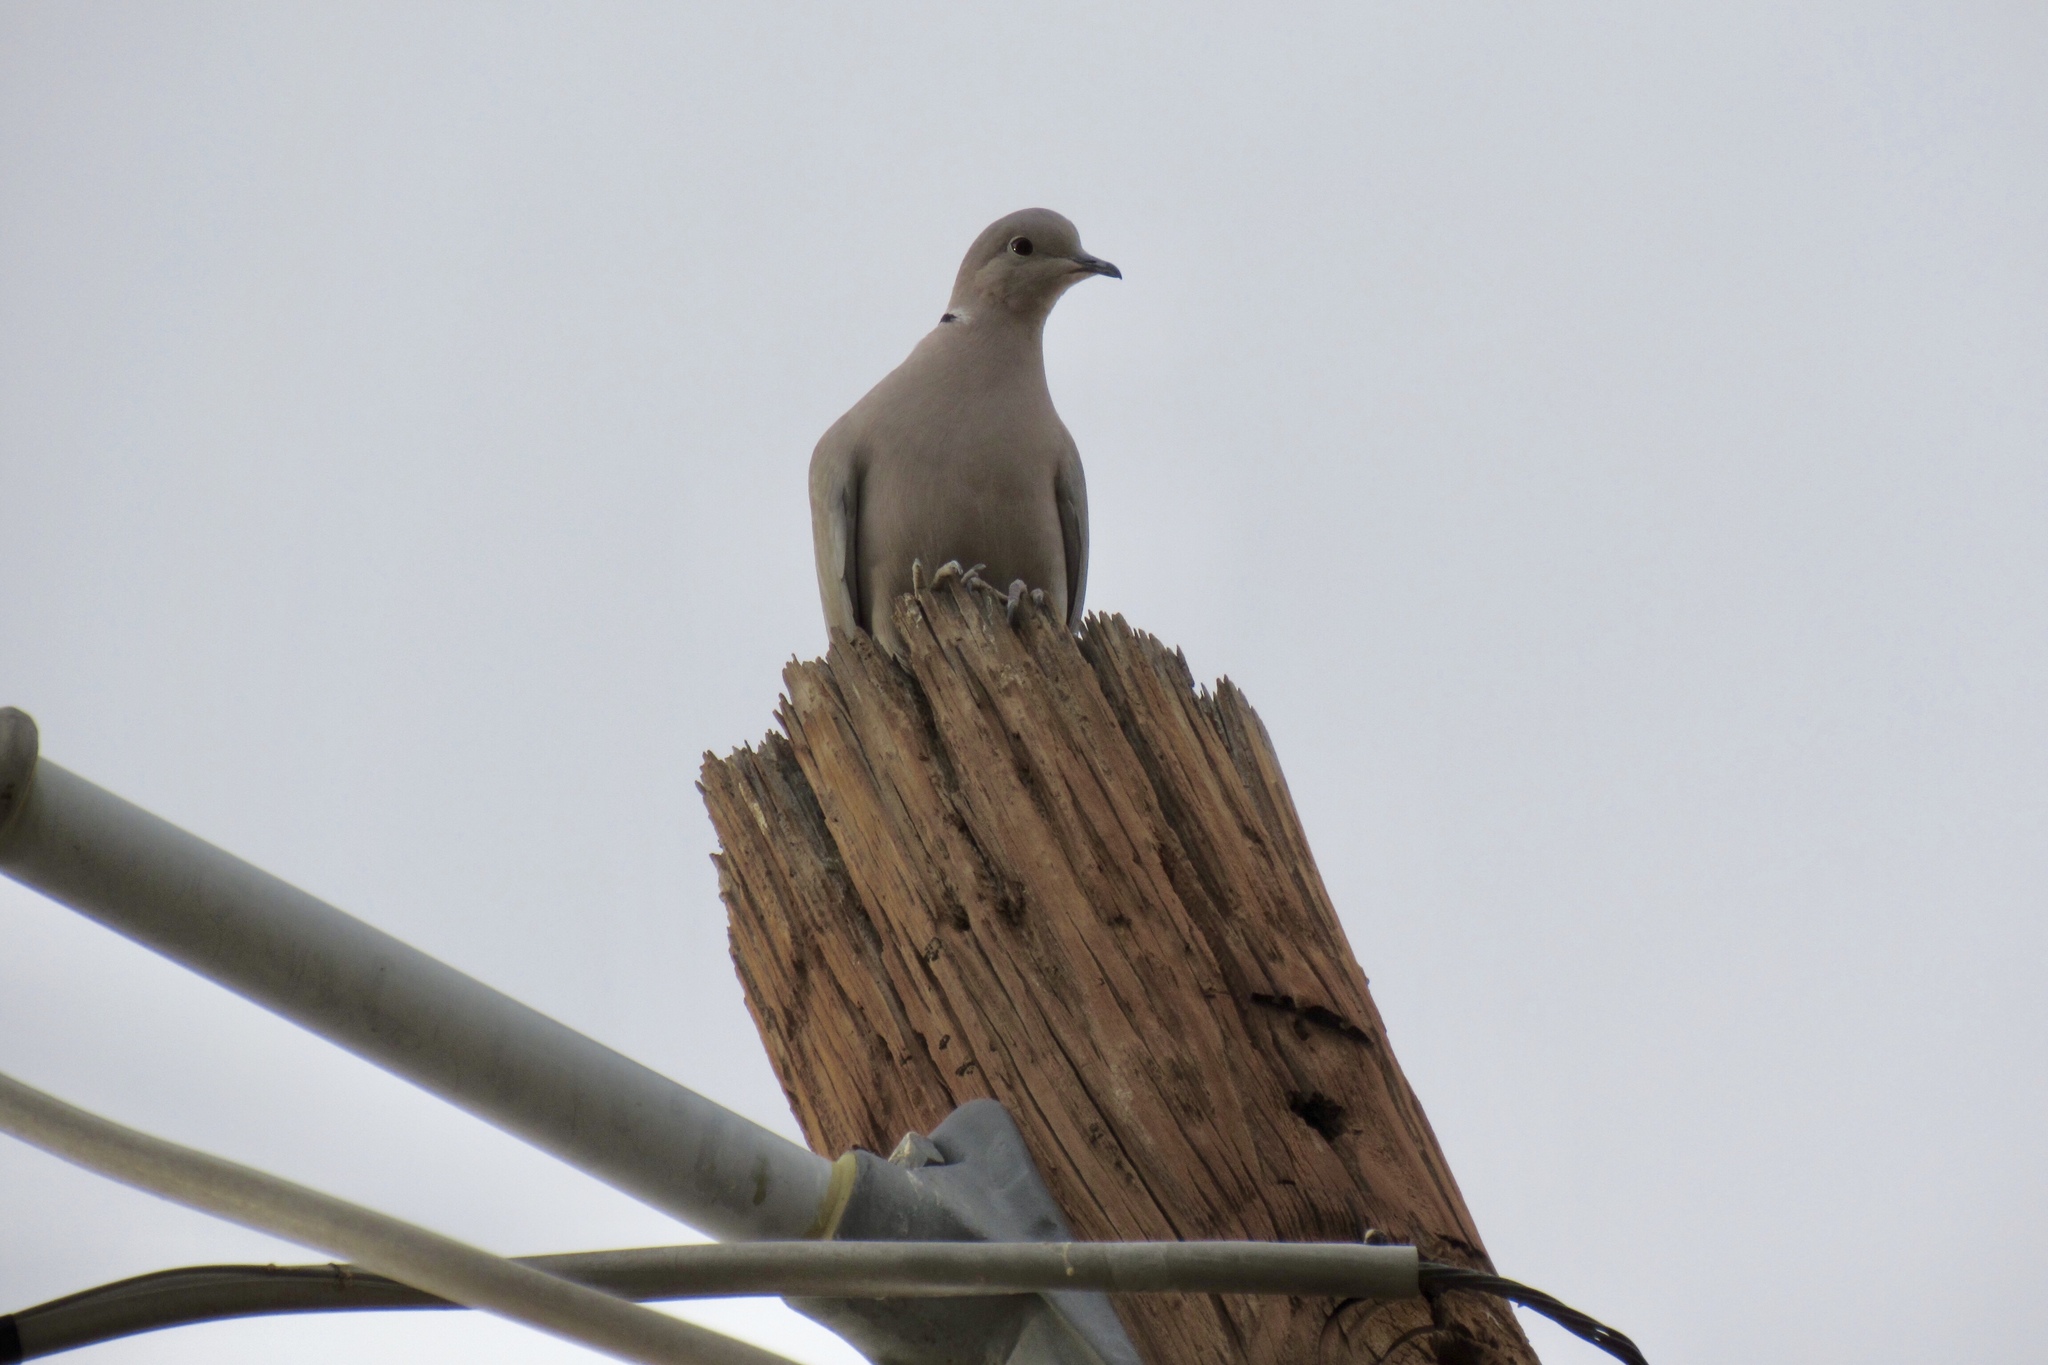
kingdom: Animalia
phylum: Chordata
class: Aves
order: Columbiformes
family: Columbidae
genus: Streptopelia
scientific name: Streptopelia decaocto
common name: Eurasian collared dove
